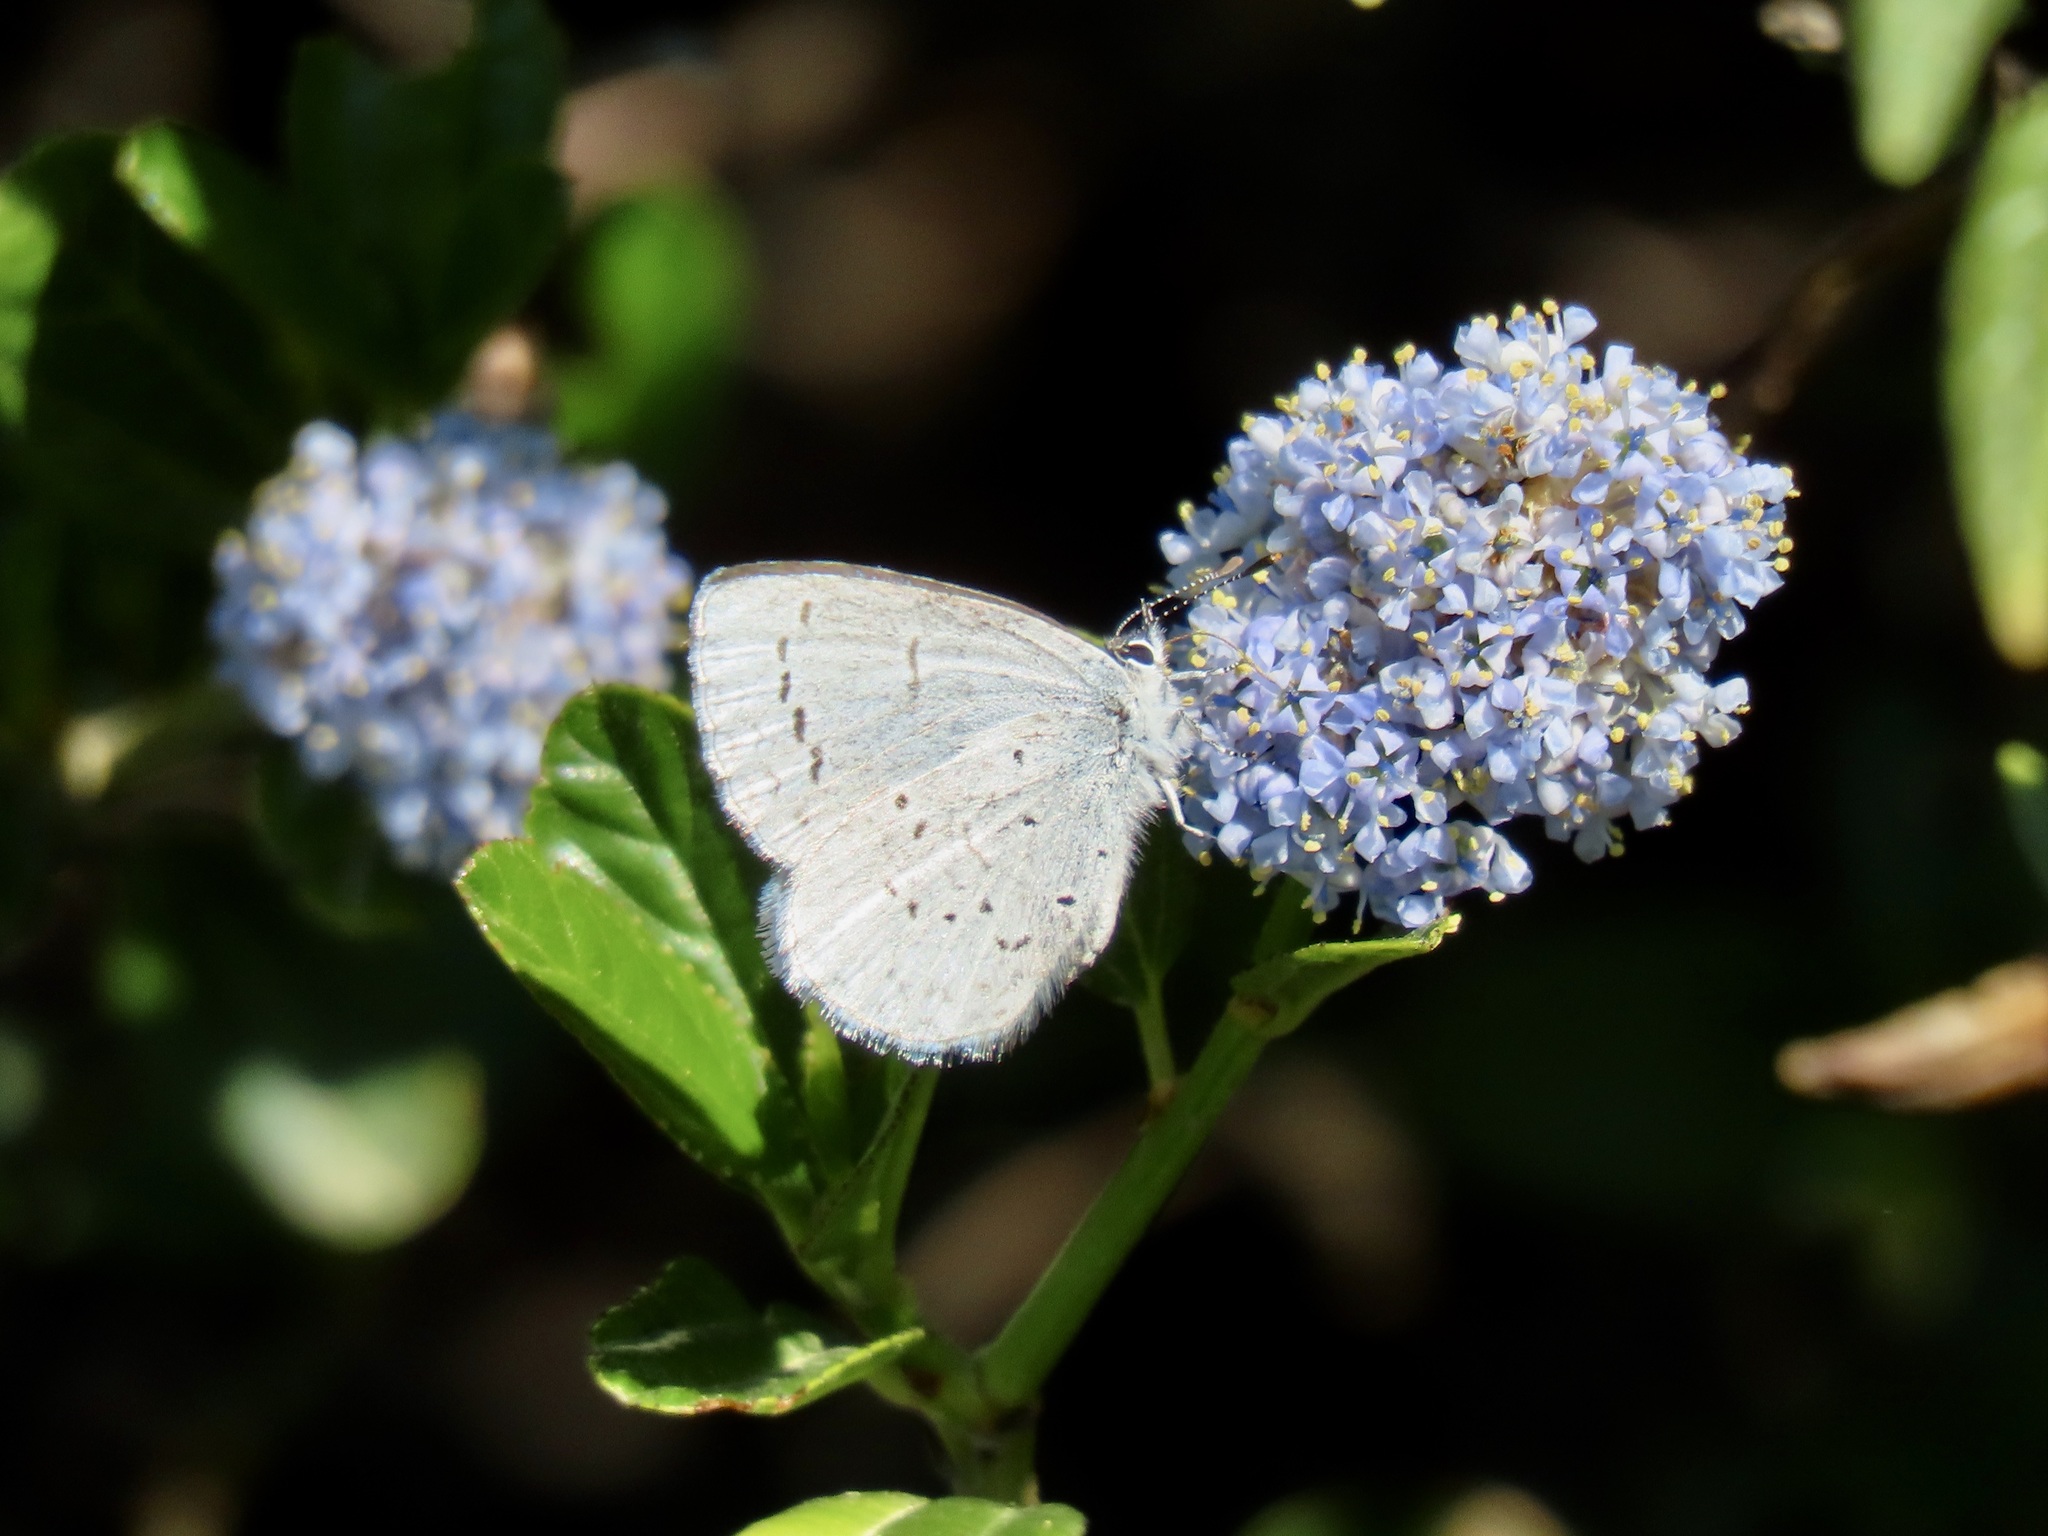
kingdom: Animalia
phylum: Arthropoda
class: Insecta
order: Lepidoptera
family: Lycaenidae
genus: Celastrina
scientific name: Celastrina ladon
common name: Spring azure
